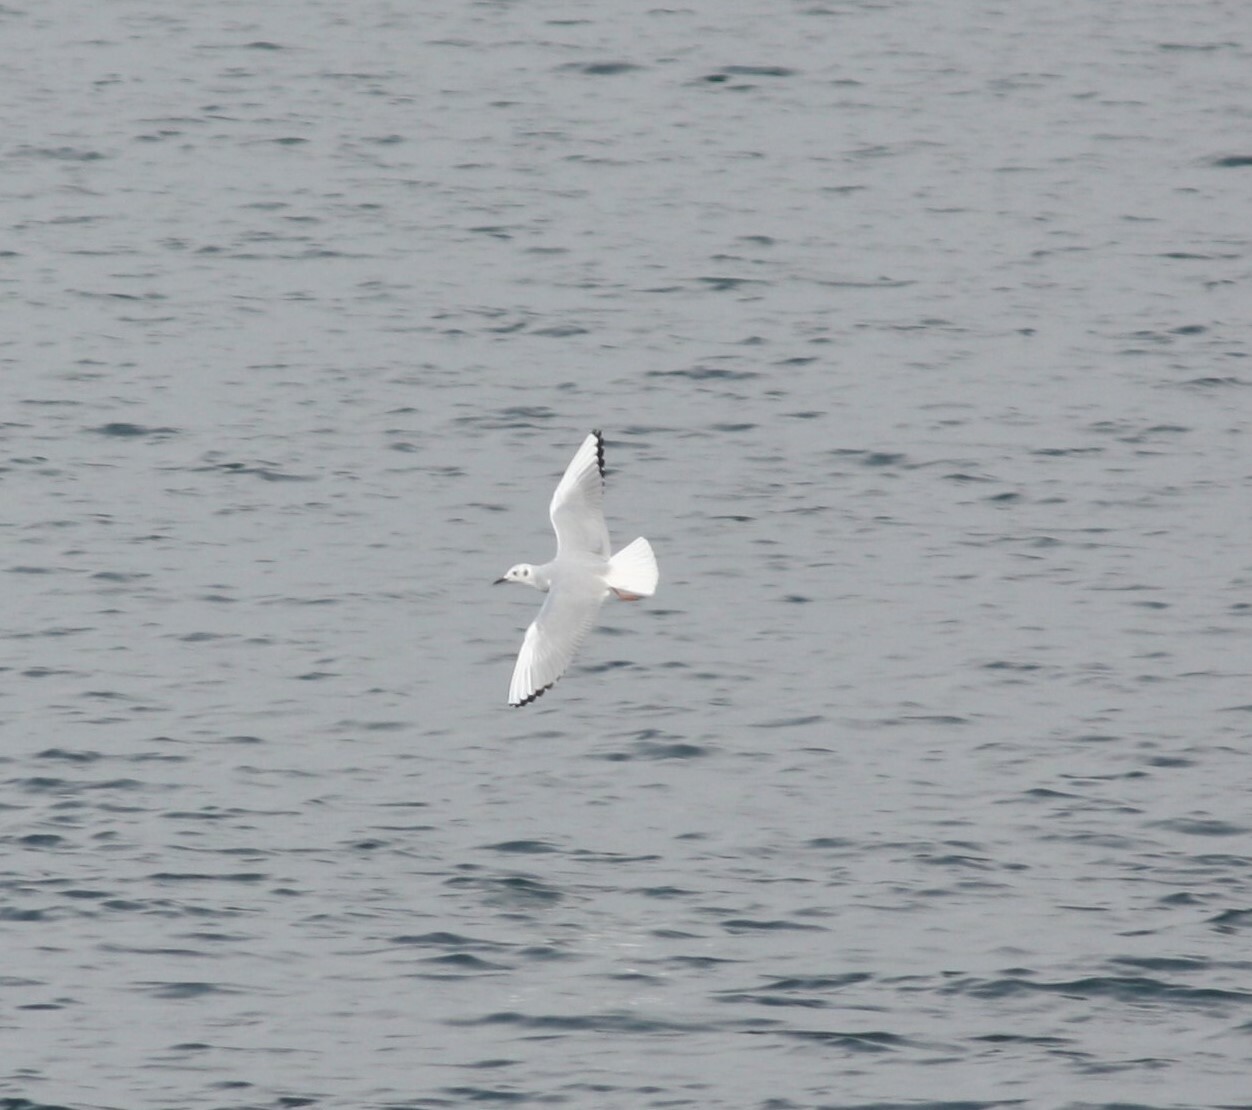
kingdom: Animalia
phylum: Chordata
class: Aves
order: Charadriiformes
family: Laridae
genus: Chroicocephalus
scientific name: Chroicocephalus philadelphia
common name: Bonaparte's gull
